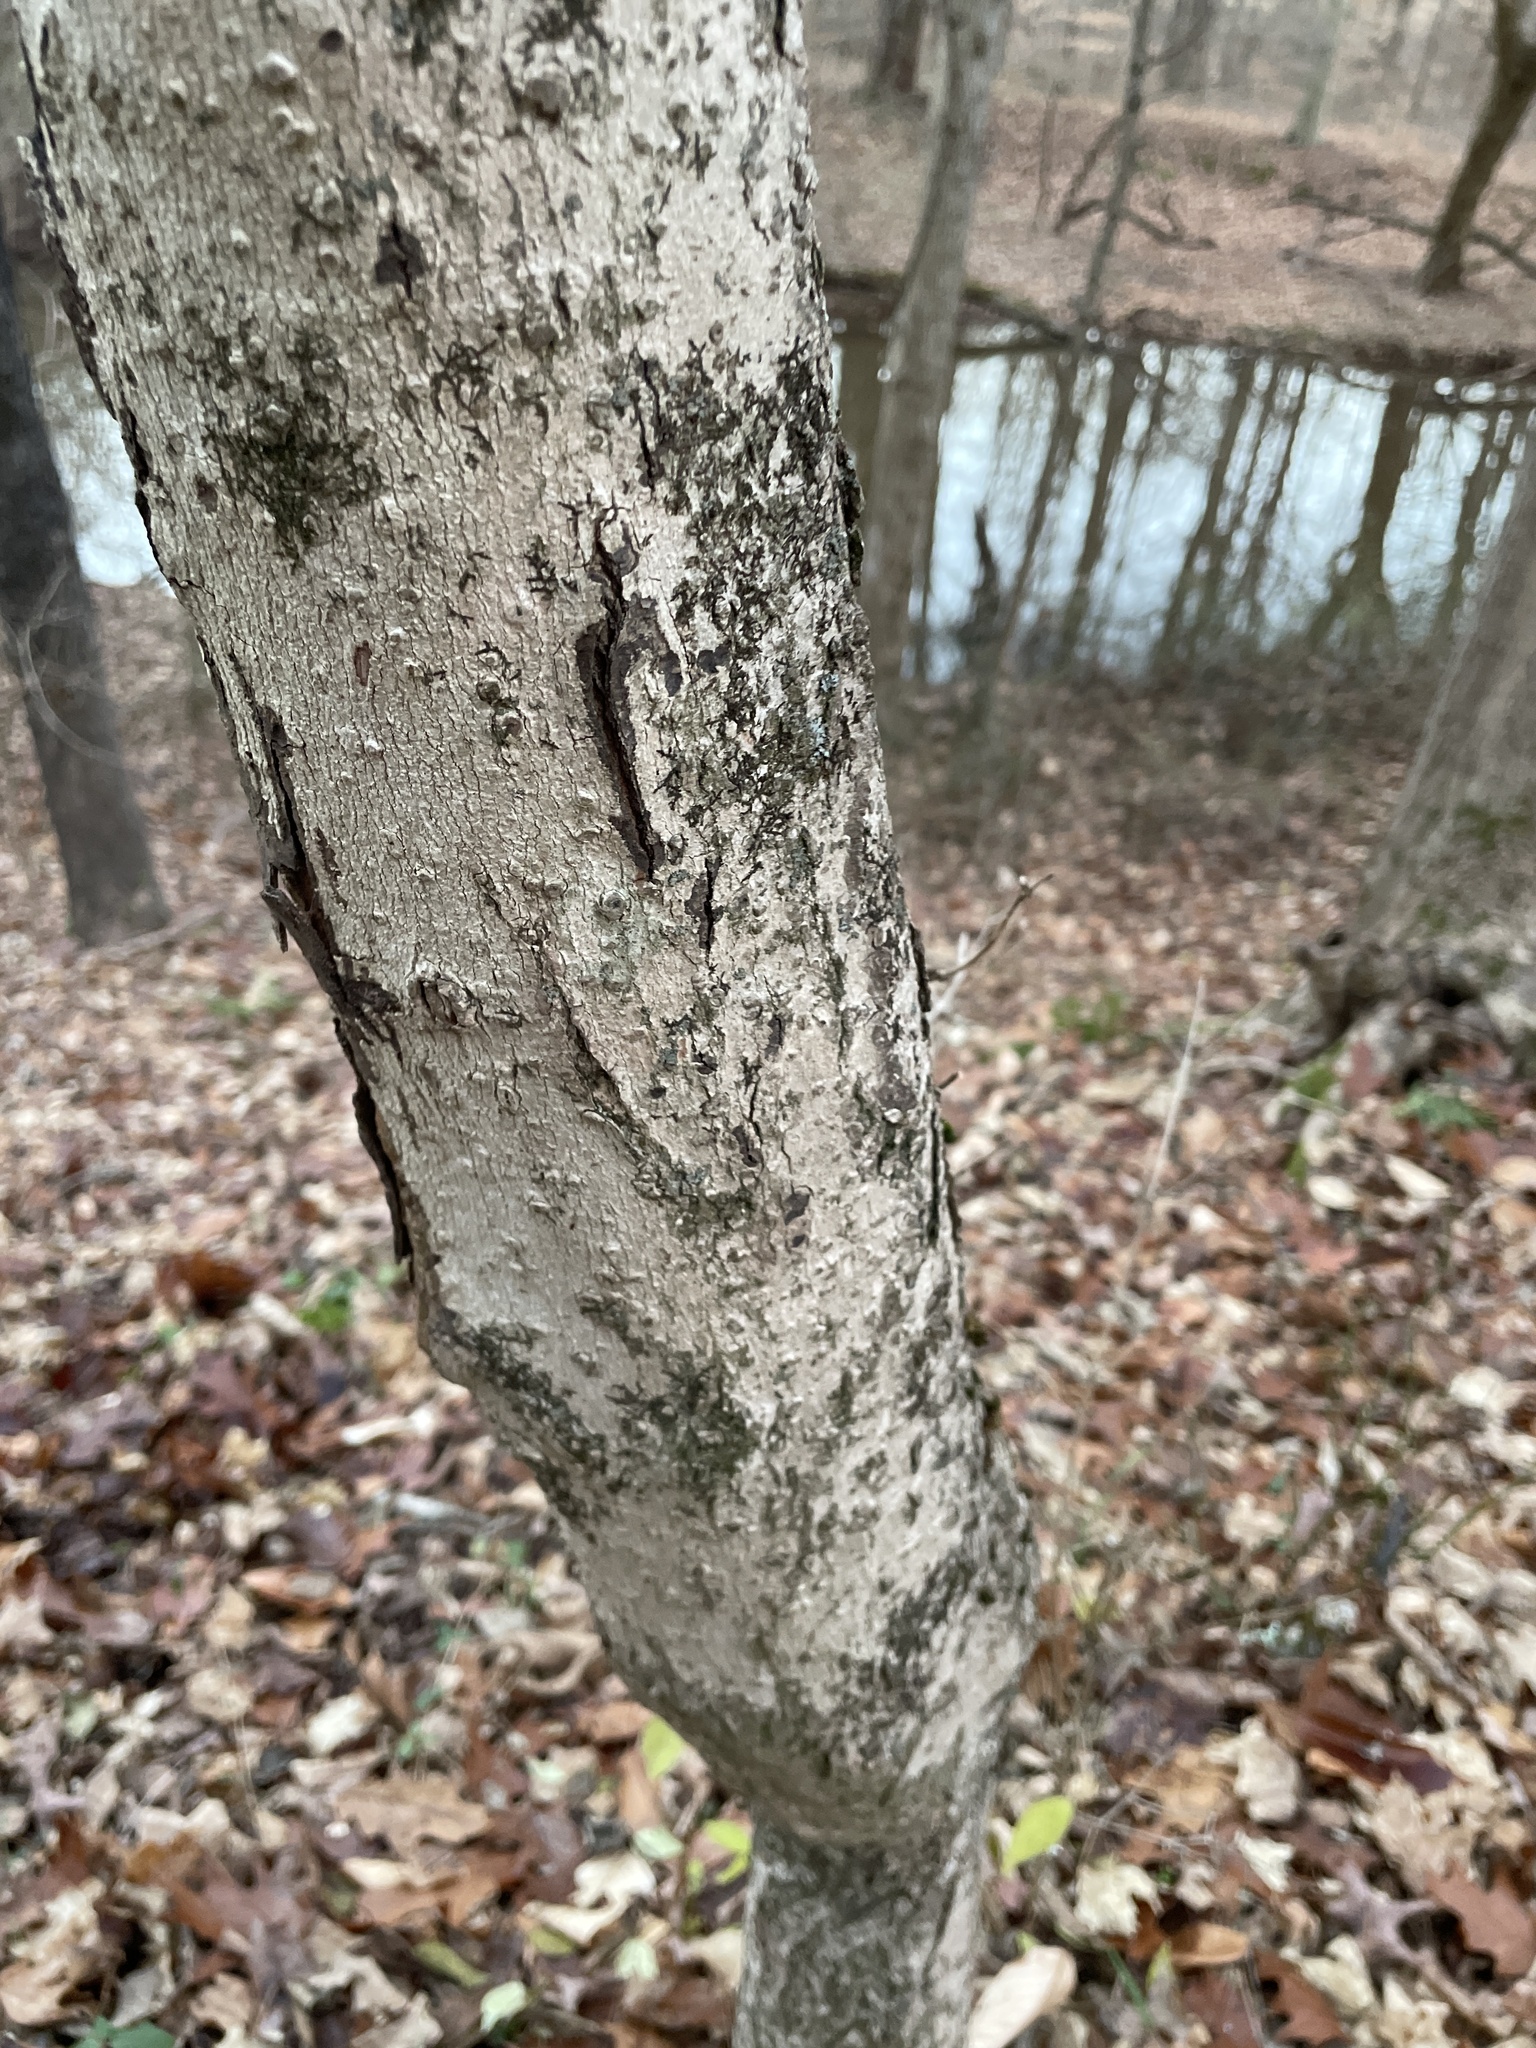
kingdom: Plantae
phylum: Tracheophyta
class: Magnoliopsida
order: Sapindales
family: Sapindaceae
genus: Acer
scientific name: Acer saccharum
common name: Sugar maple
